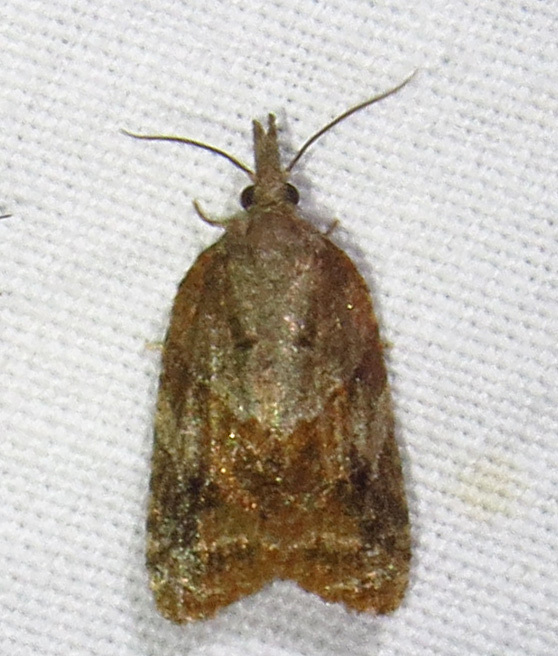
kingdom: Animalia
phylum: Arthropoda
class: Insecta
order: Lepidoptera
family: Tortricidae
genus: Platynota
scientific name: Platynota idaeusalis
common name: Tufted apple bud moth
